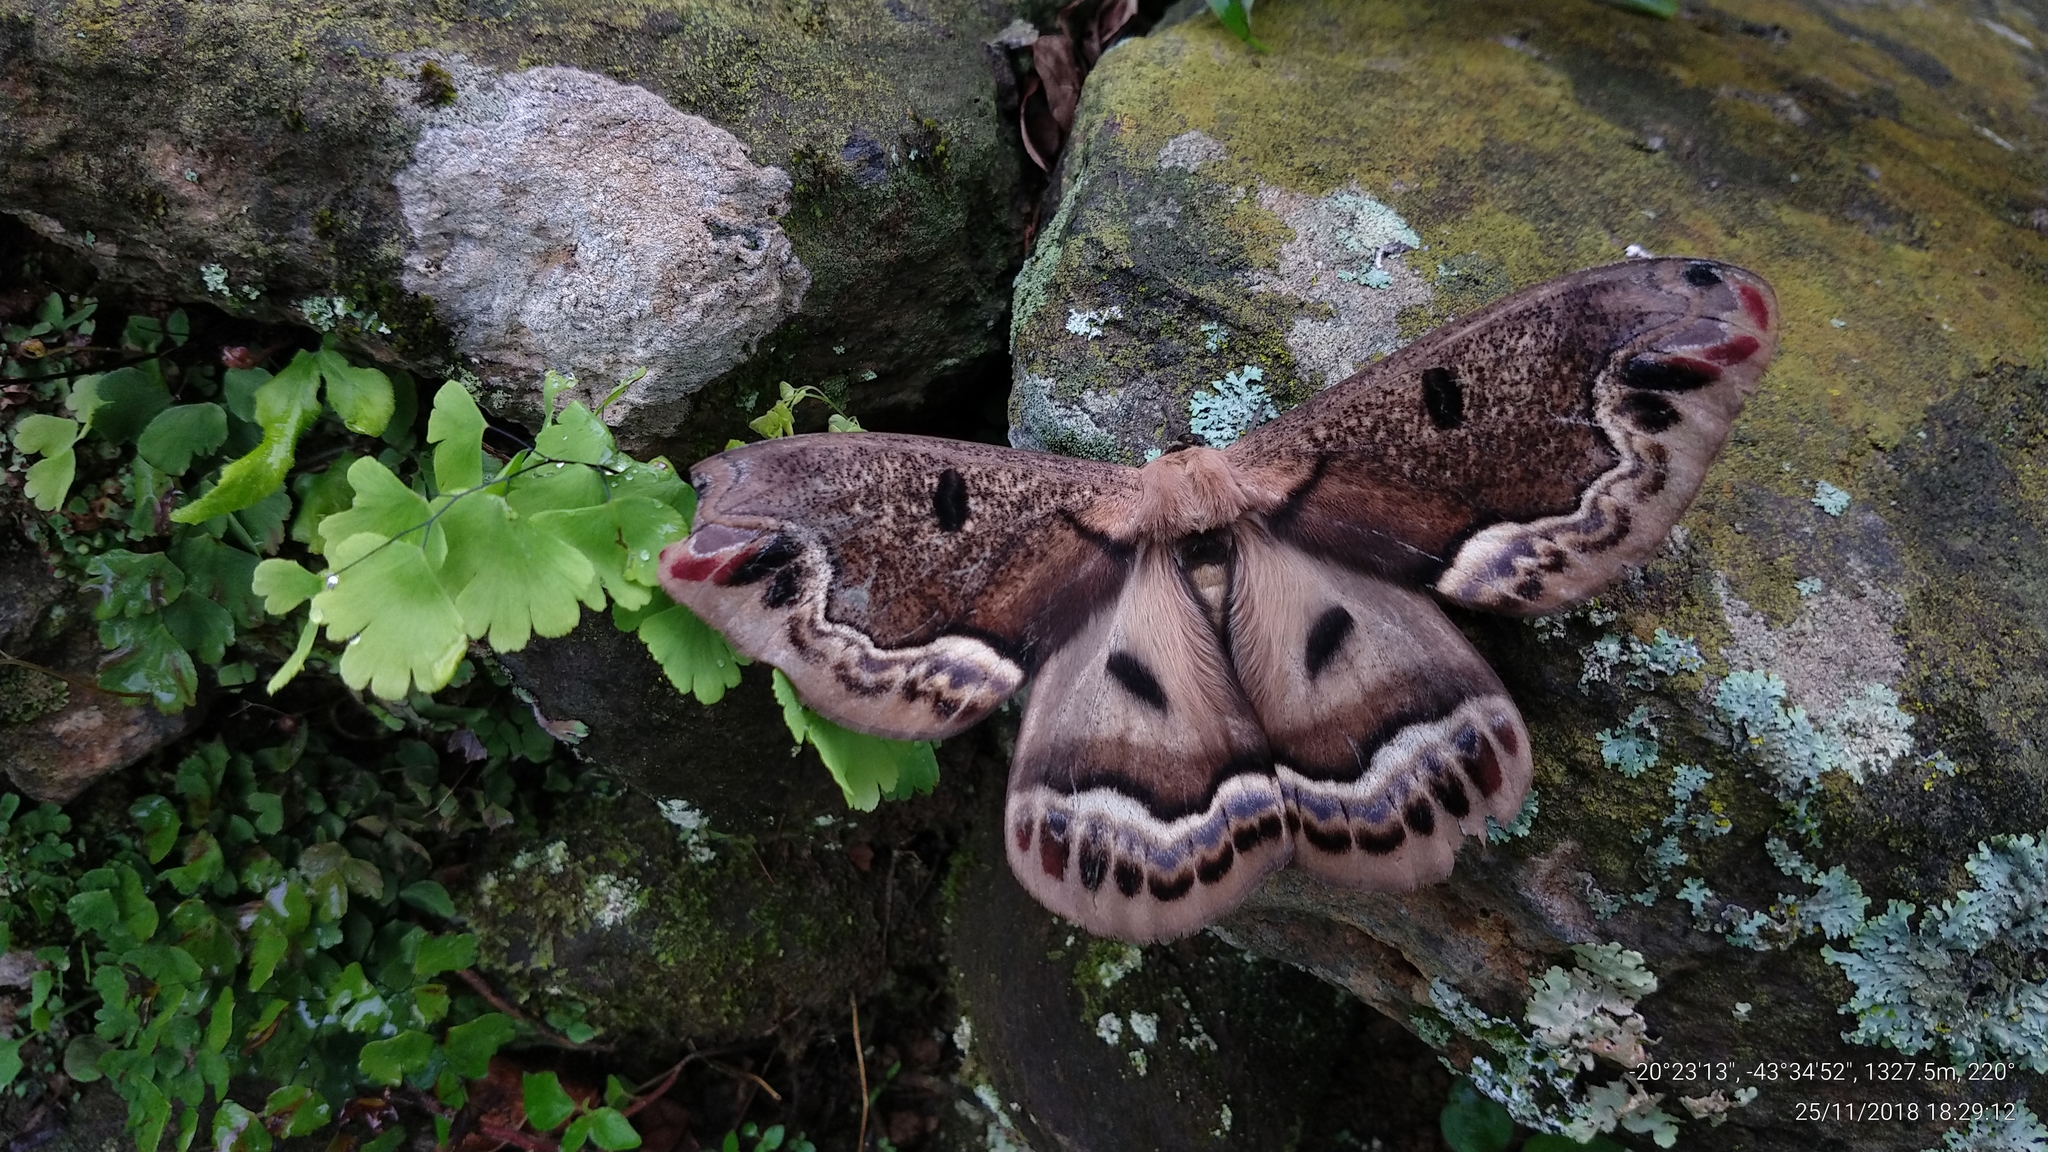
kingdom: Animalia
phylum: Arthropoda
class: Insecta
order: Lepidoptera
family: Saturniidae
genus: Arsenura
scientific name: Arsenura pandora
